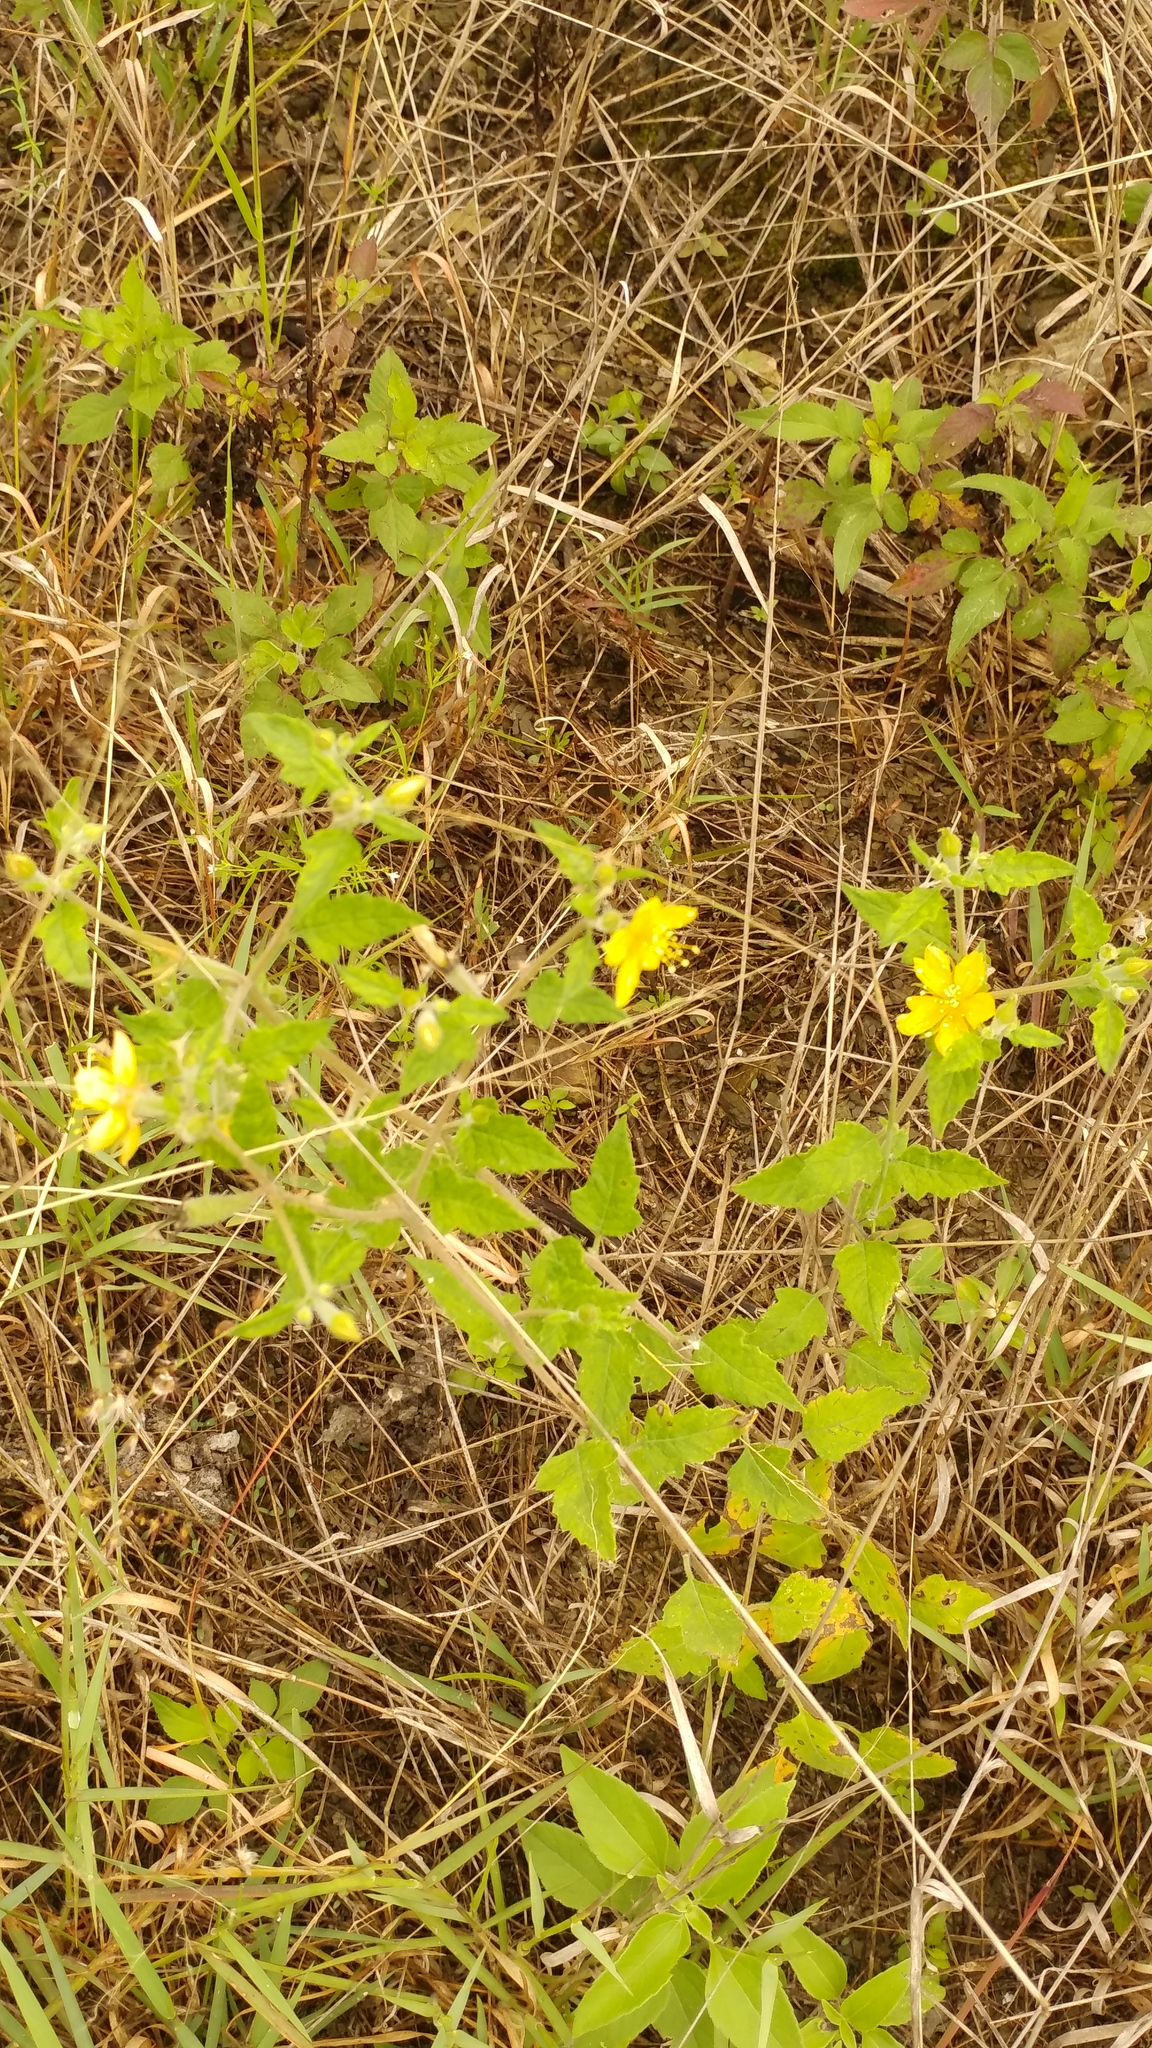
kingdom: Plantae
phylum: Tracheophyta
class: Magnoliopsida
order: Cornales
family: Loasaceae
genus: Mentzelia
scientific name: Mentzelia hispida
